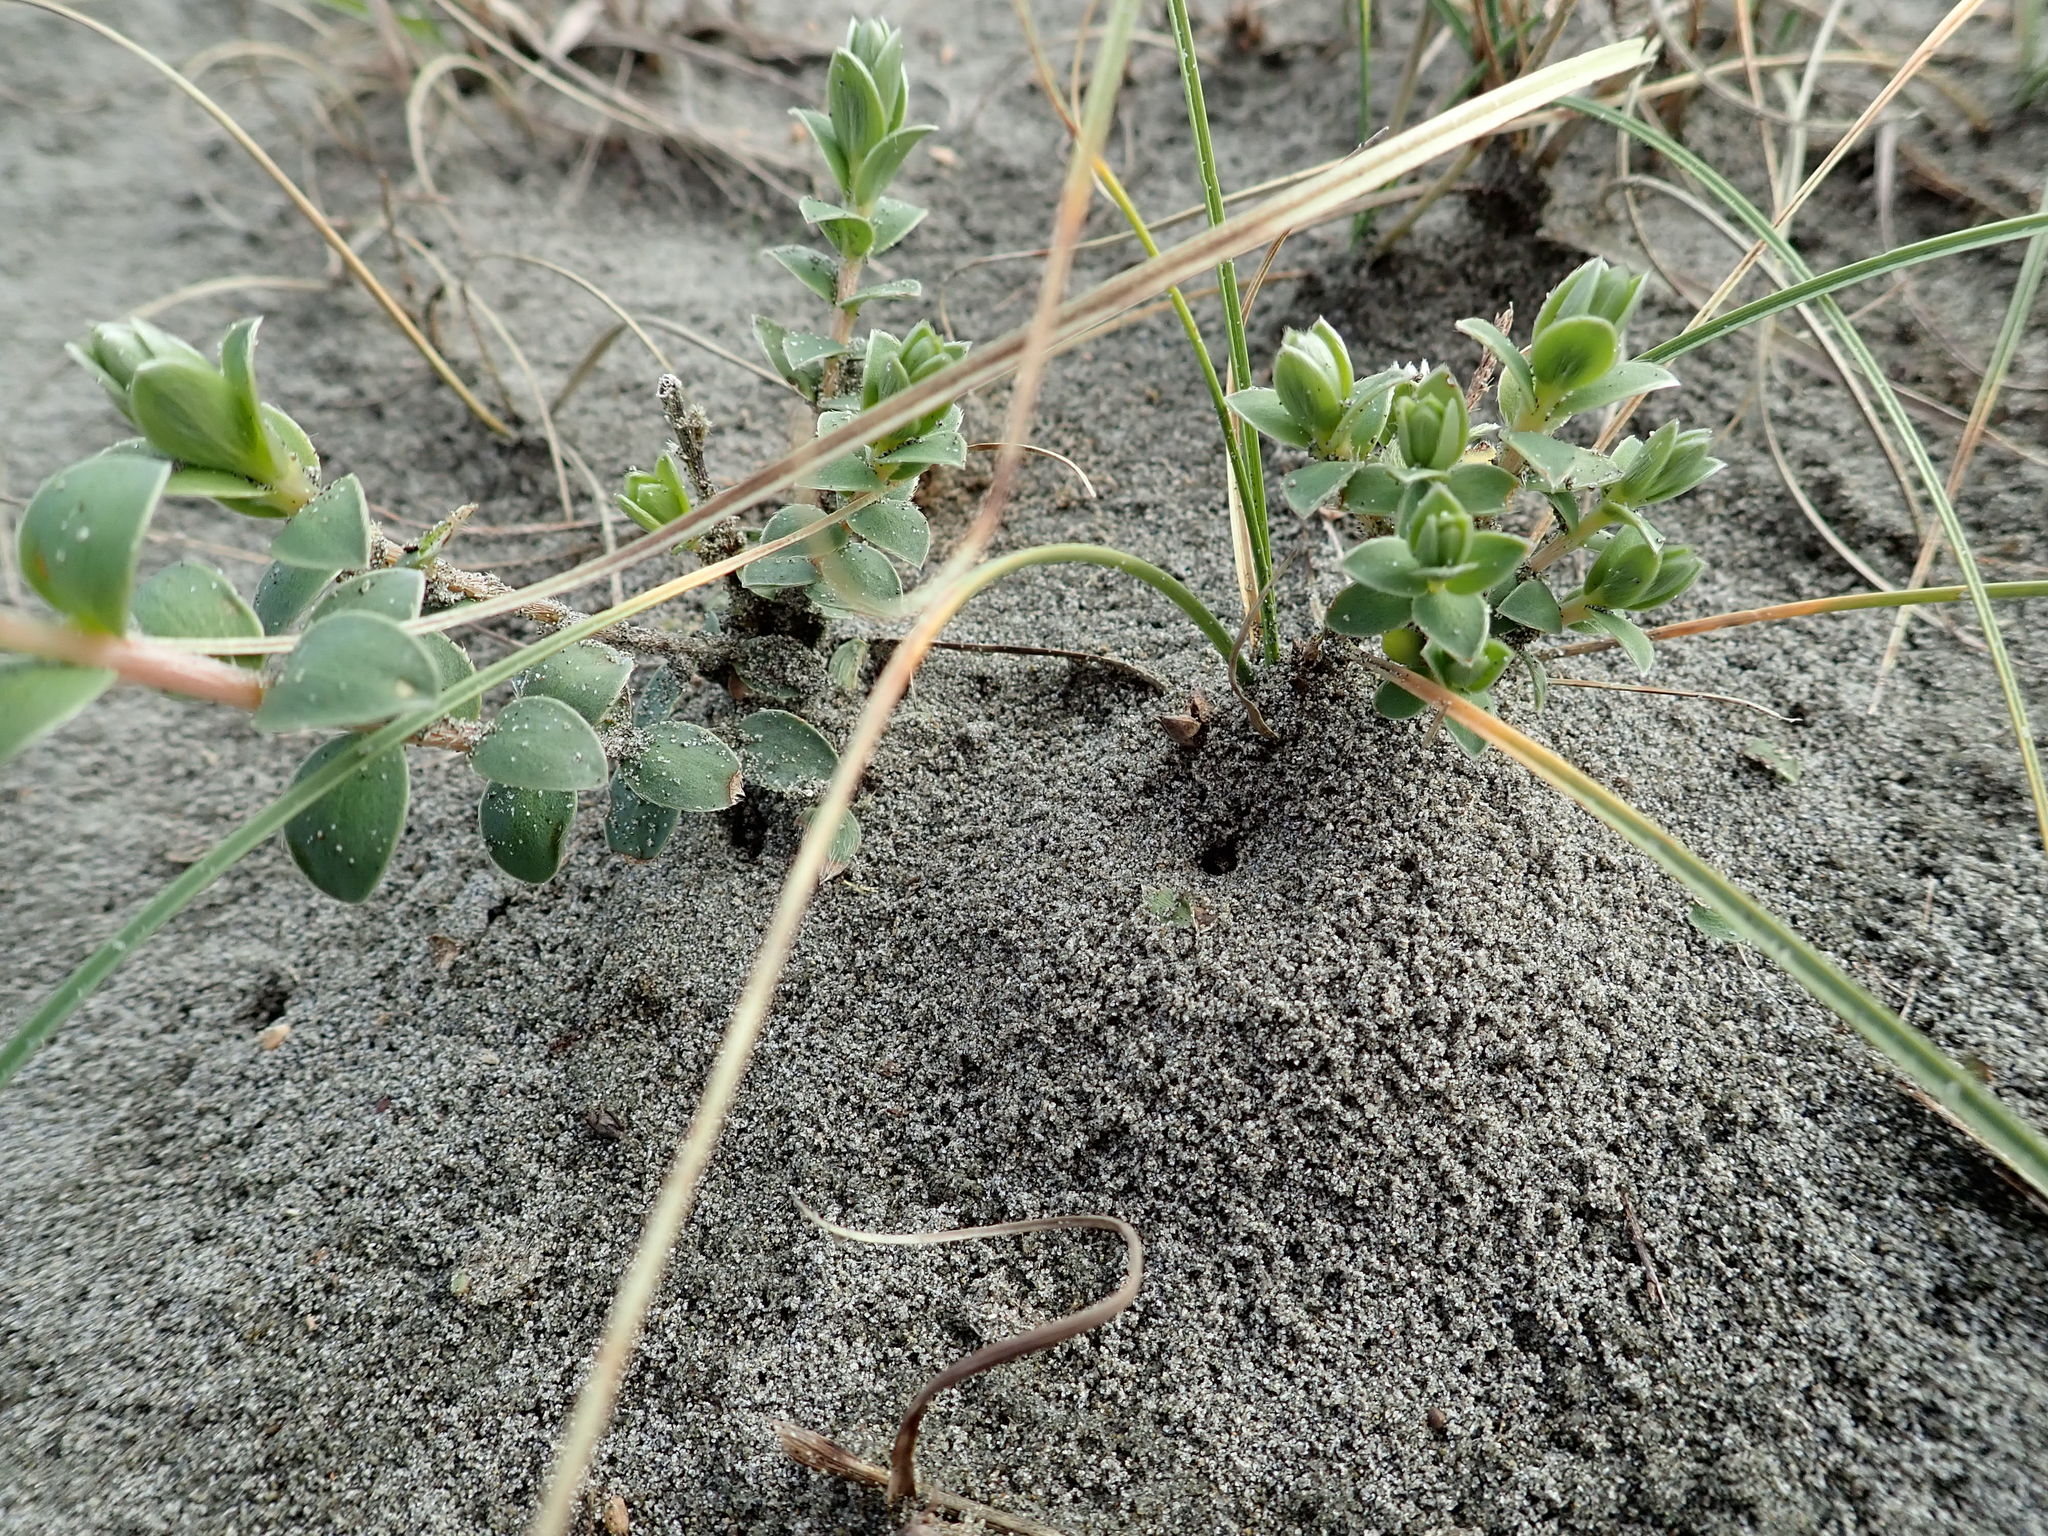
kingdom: Plantae
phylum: Tracheophyta
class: Magnoliopsida
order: Malvales
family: Thymelaeaceae
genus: Pimelea
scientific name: Pimelea villosa
